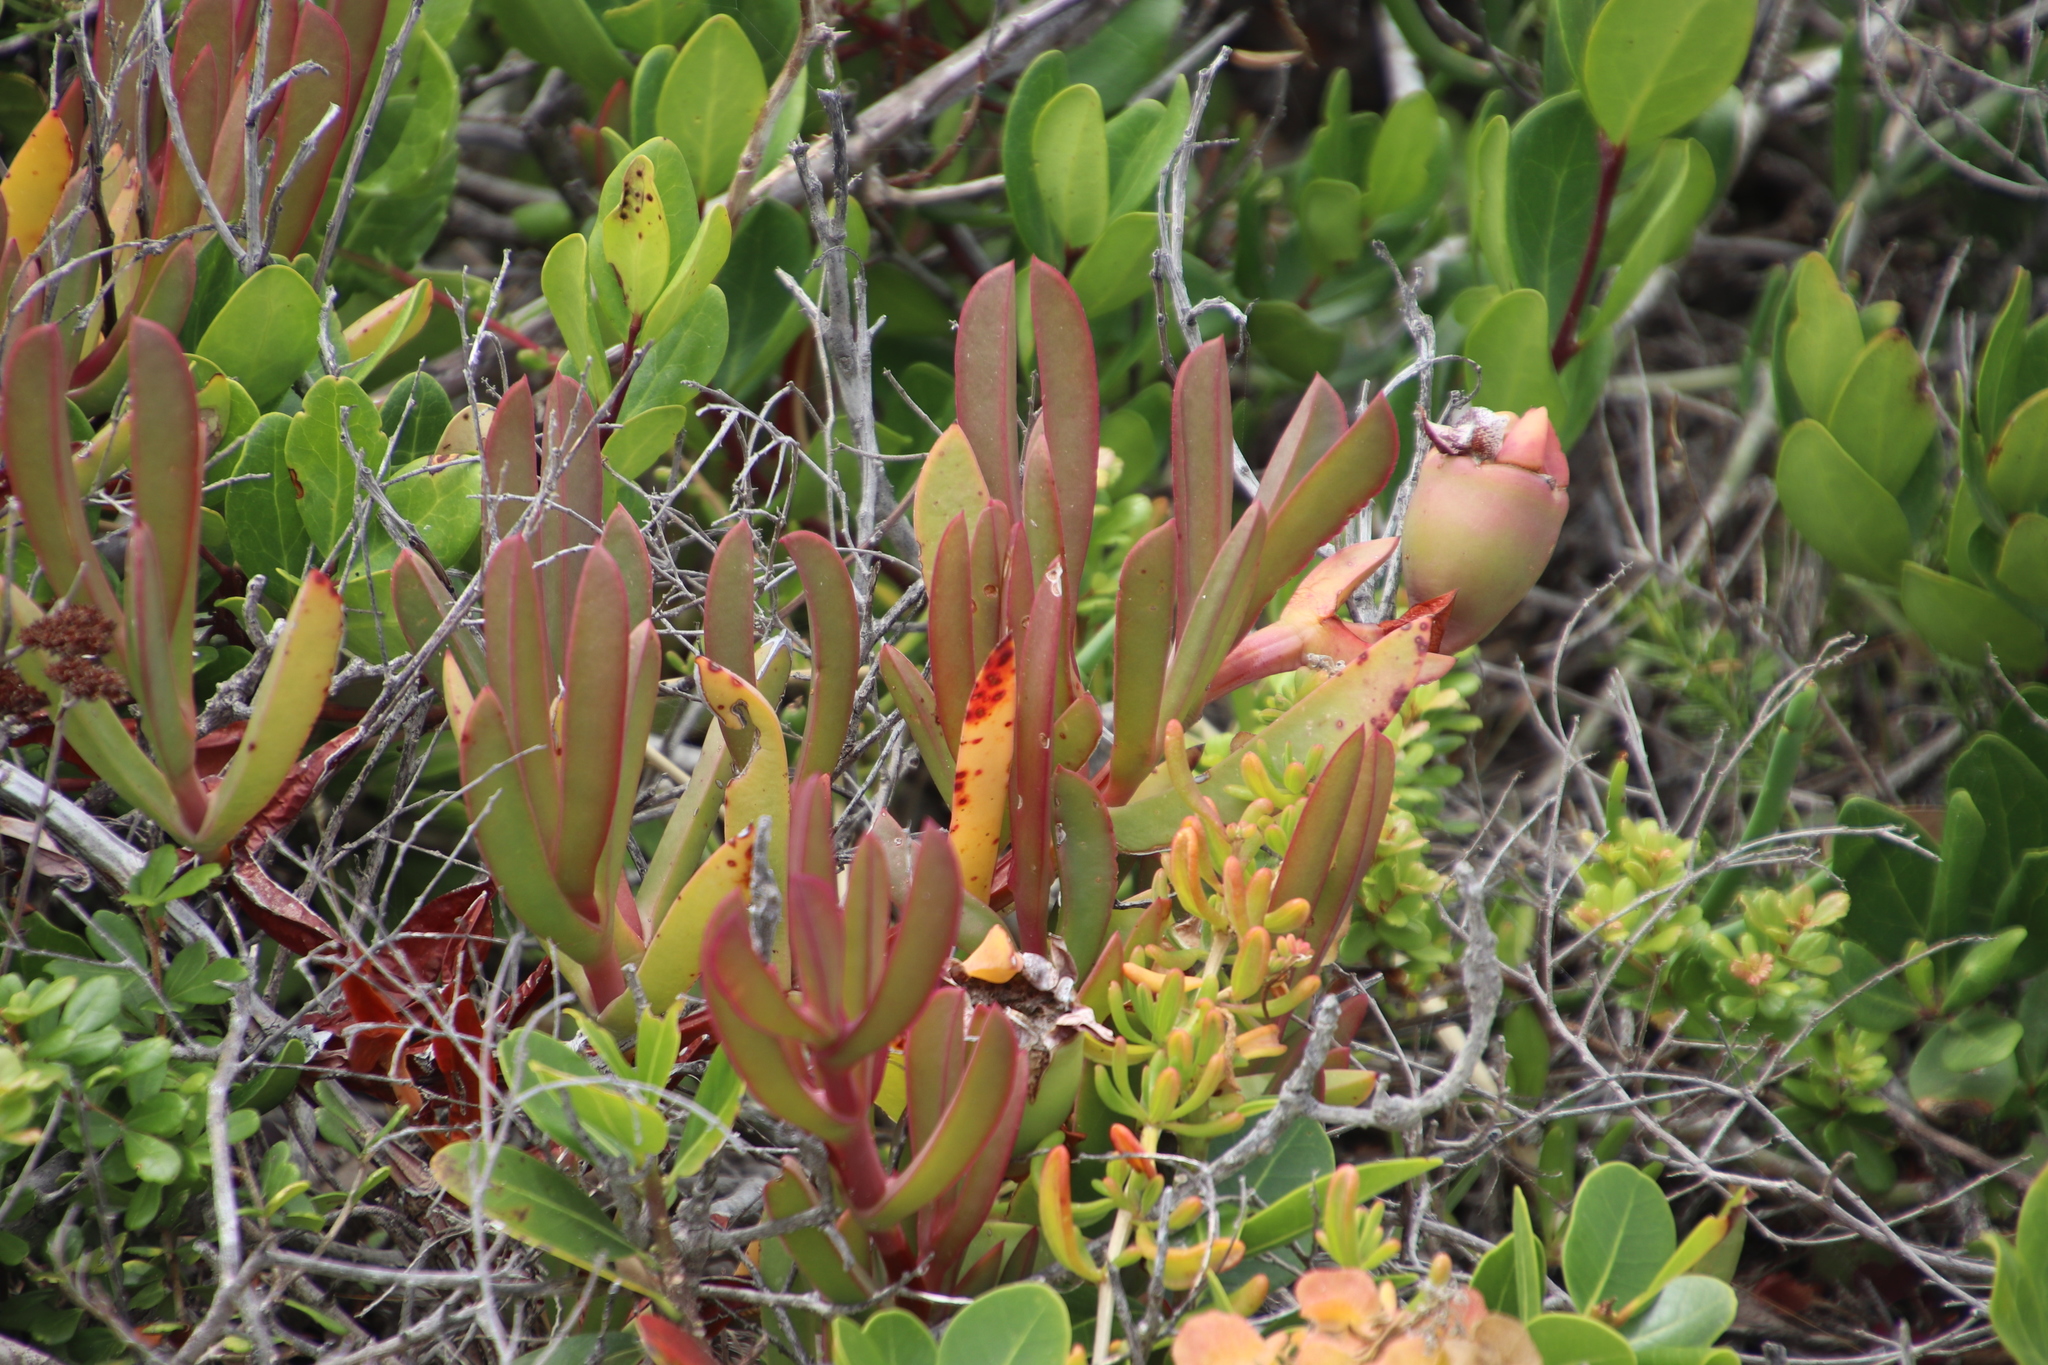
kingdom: Plantae
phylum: Tracheophyta
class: Magnoliopsida
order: Caryophyllales
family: Aizoaceae
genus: Carpobrotus
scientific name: Carpobrotus acinaciformis
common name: Sally-my-handsome
